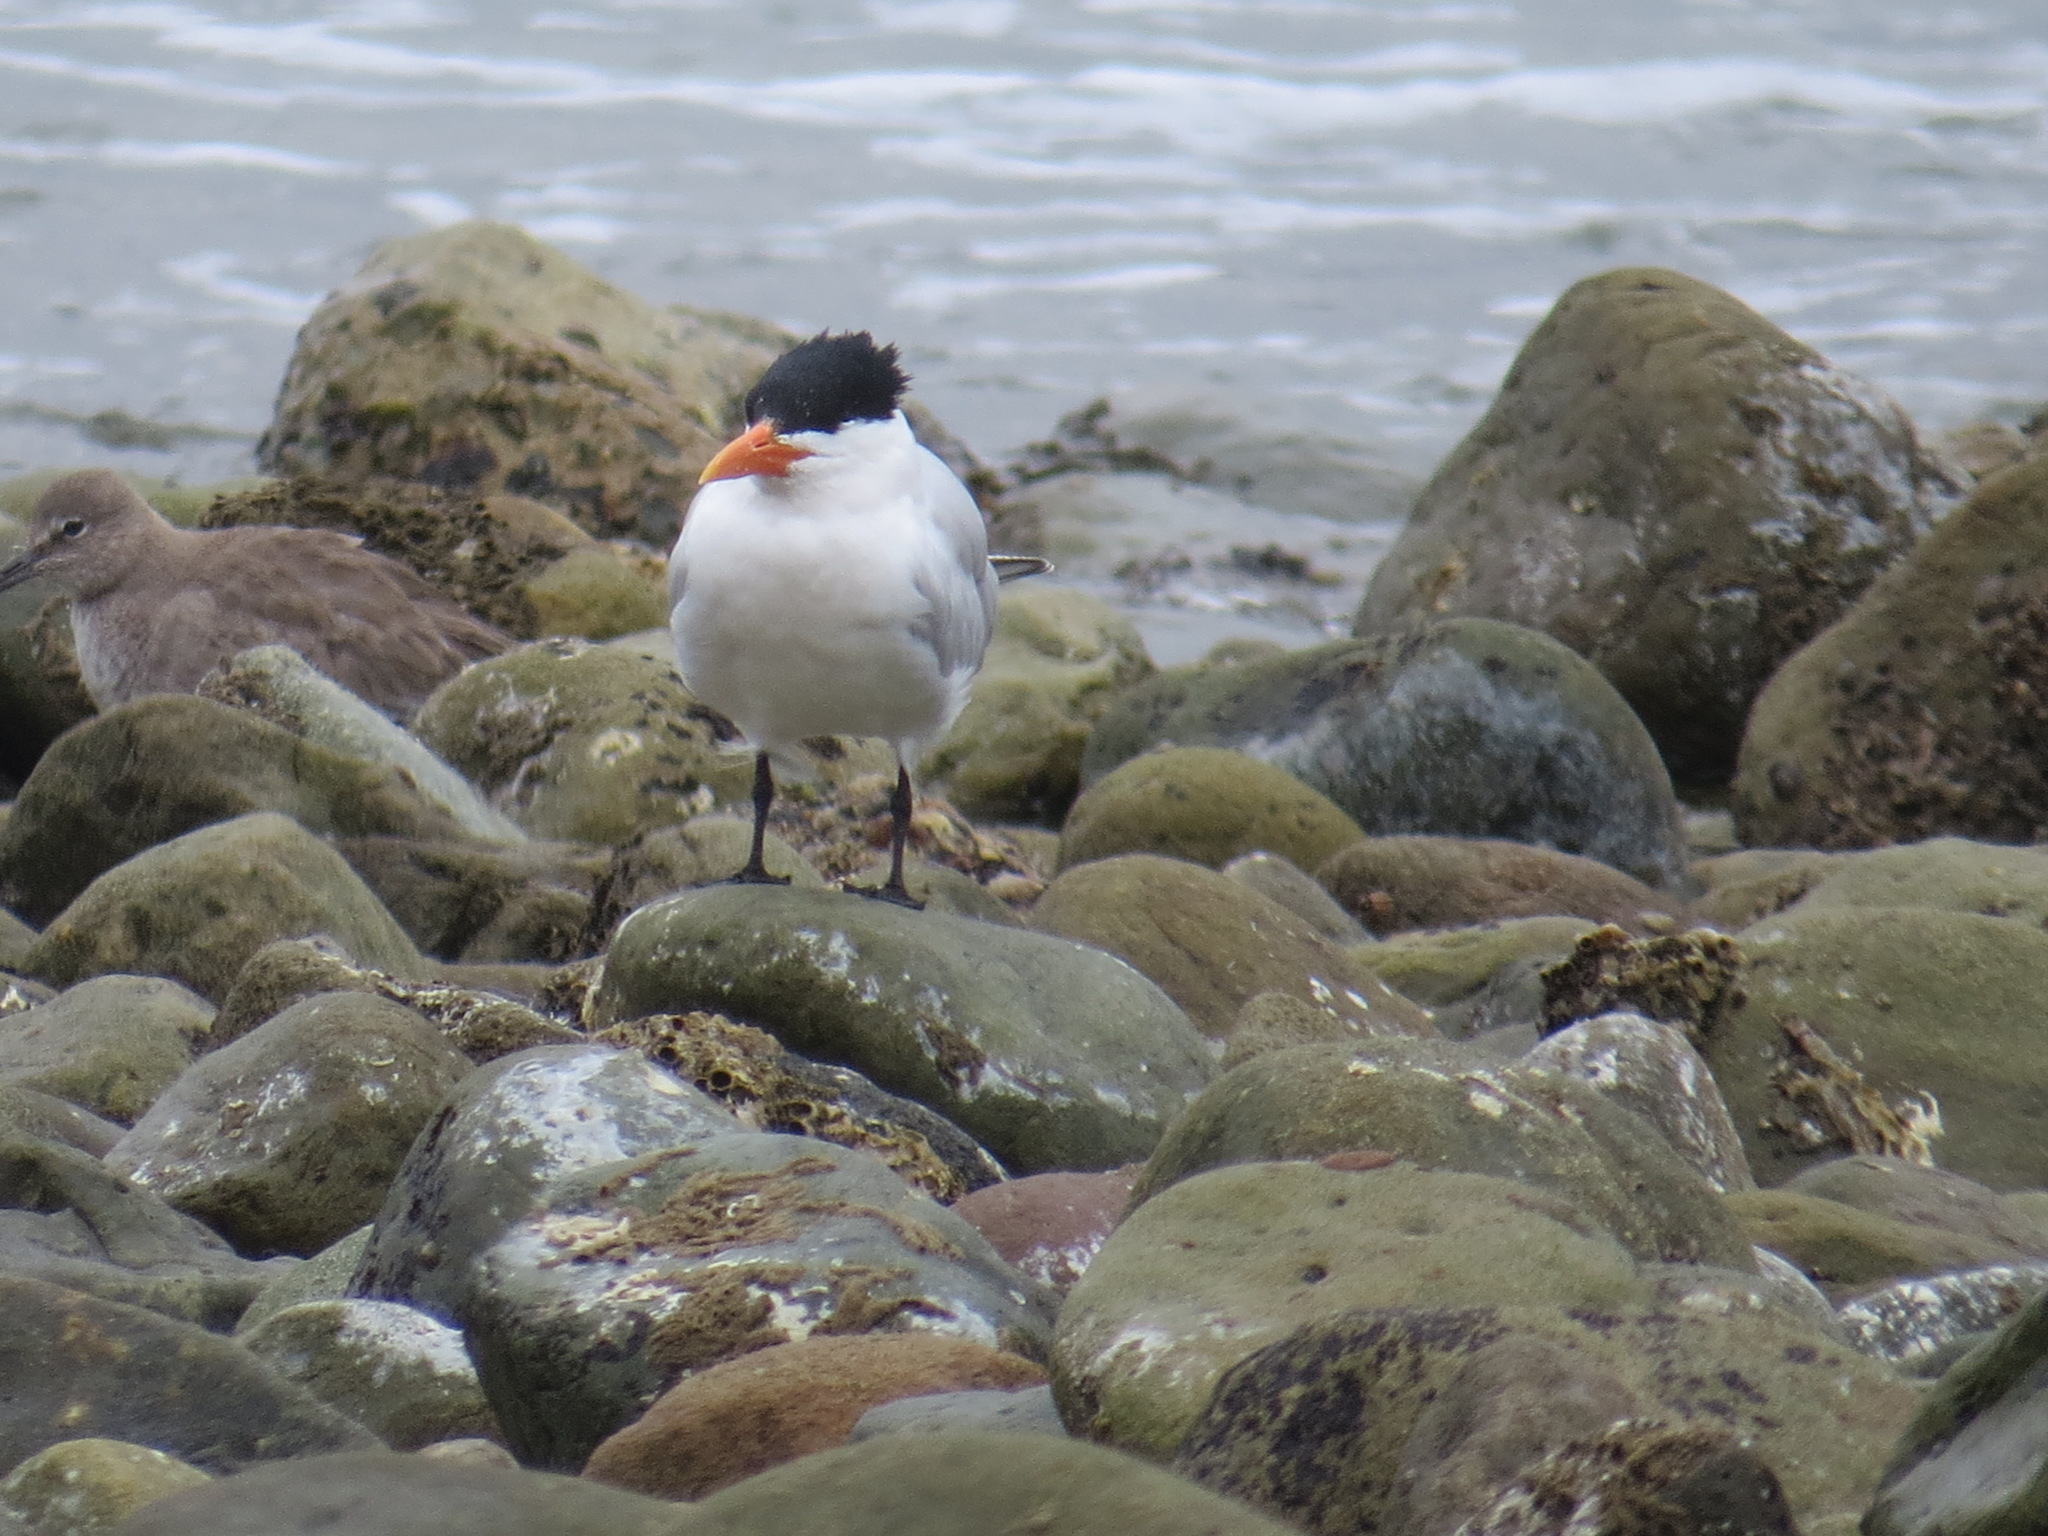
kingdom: Animalia
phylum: Chordata
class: Aves
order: Charadriiformes
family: Laridae
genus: Thalasseus
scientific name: Thalasseus maximus
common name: Royal tern
